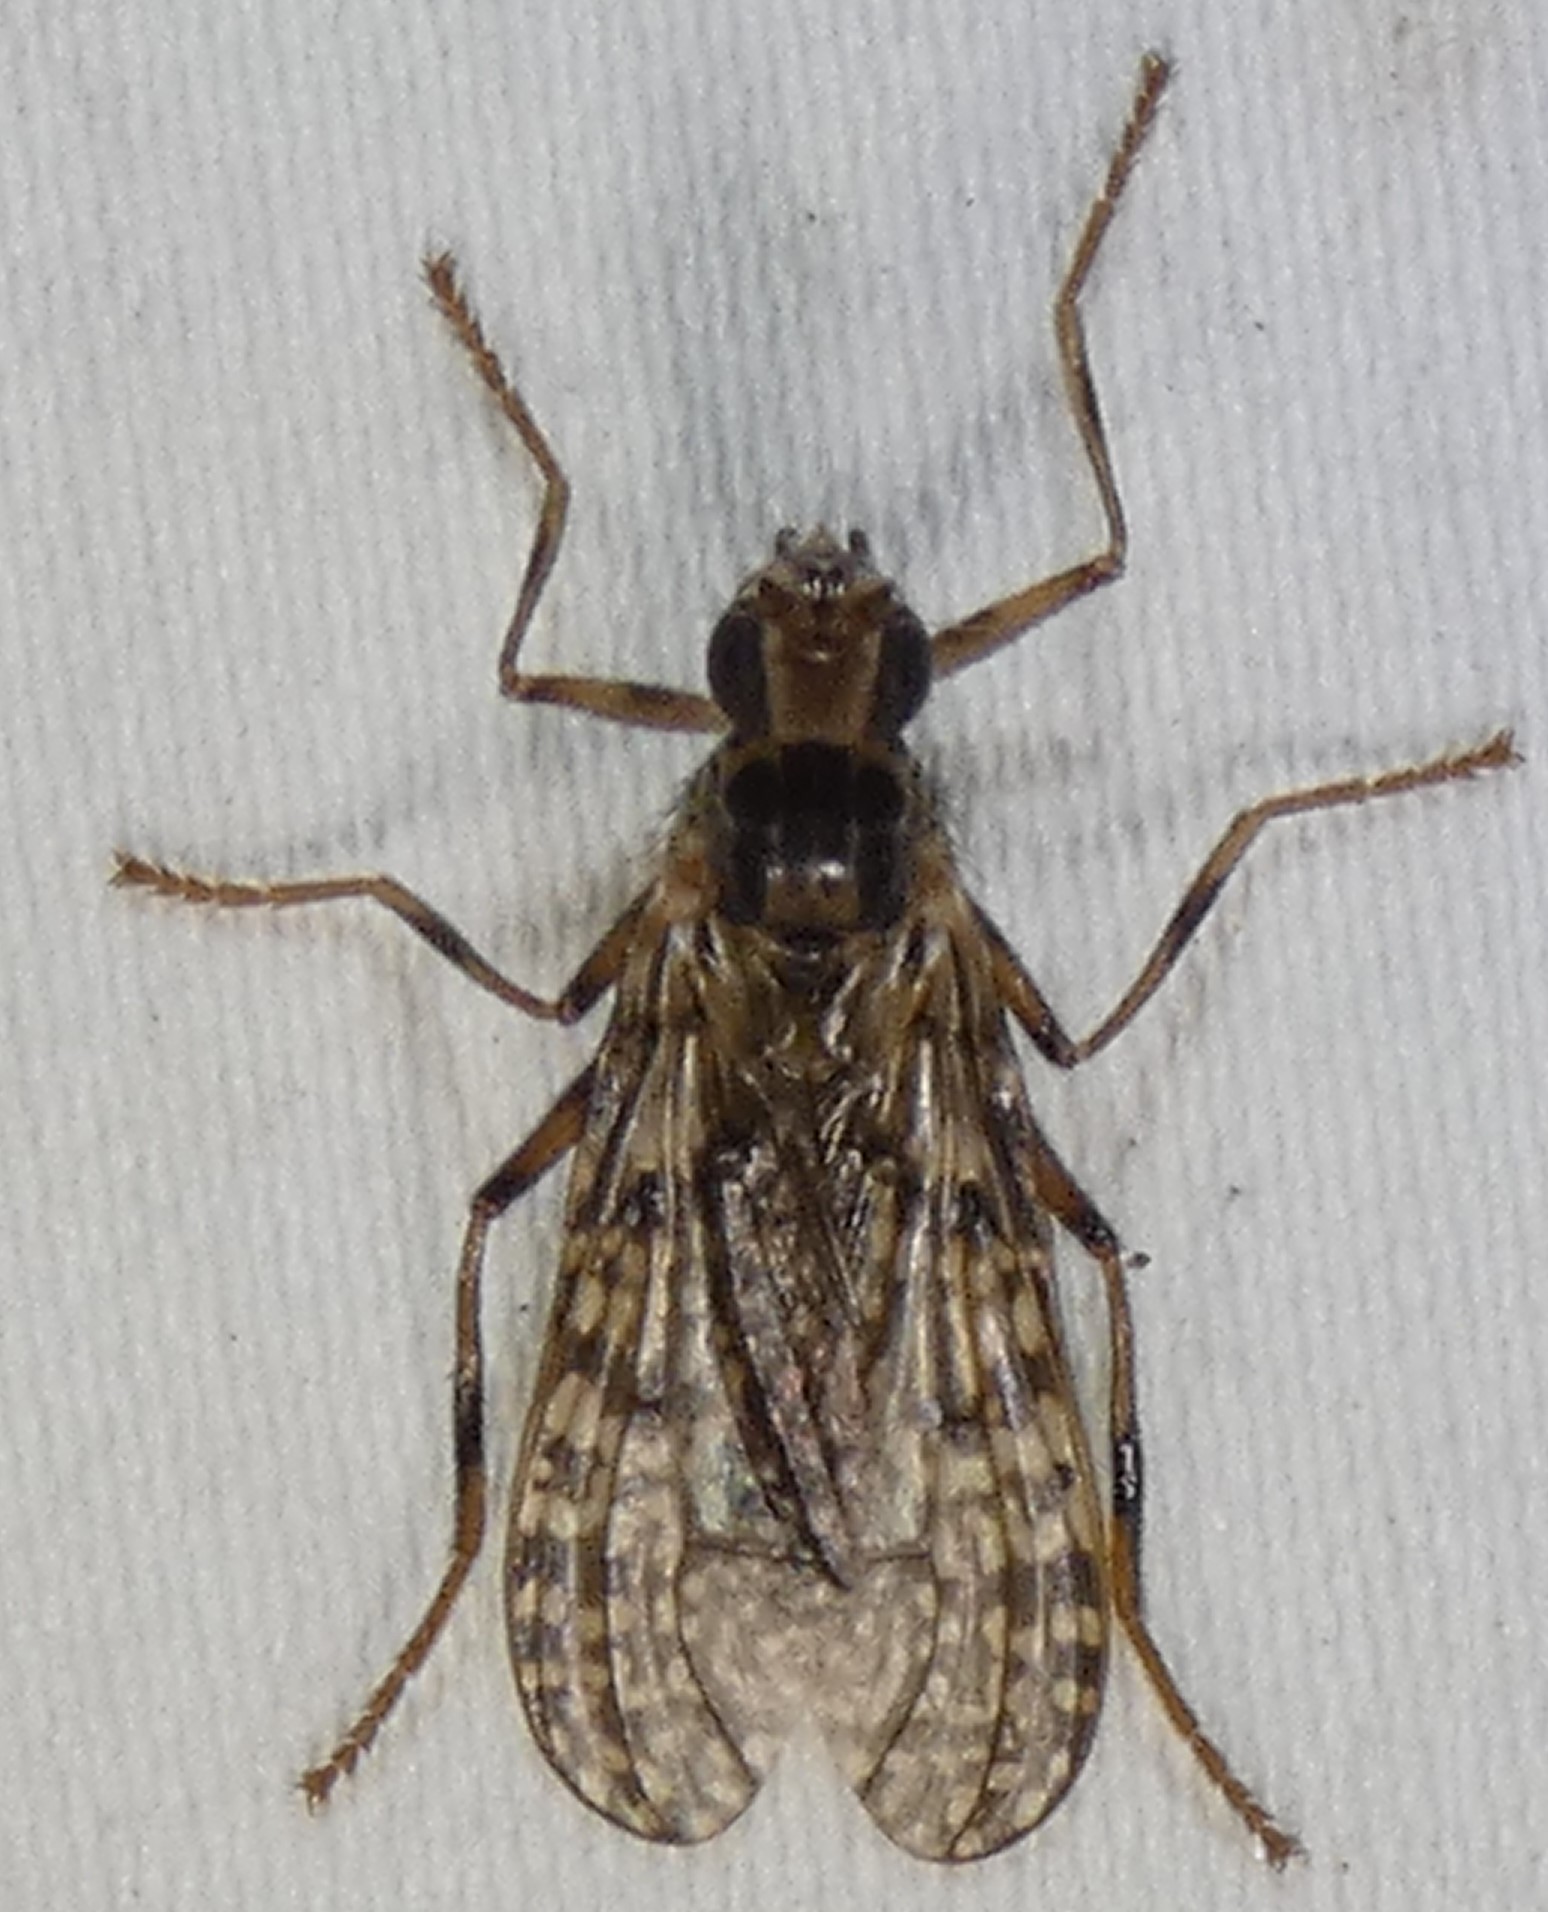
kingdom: Animalia
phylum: Arthropoda
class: Insecta
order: Diptera
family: Pyrgotidae
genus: Boreothrinax
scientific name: Boreothrinax
